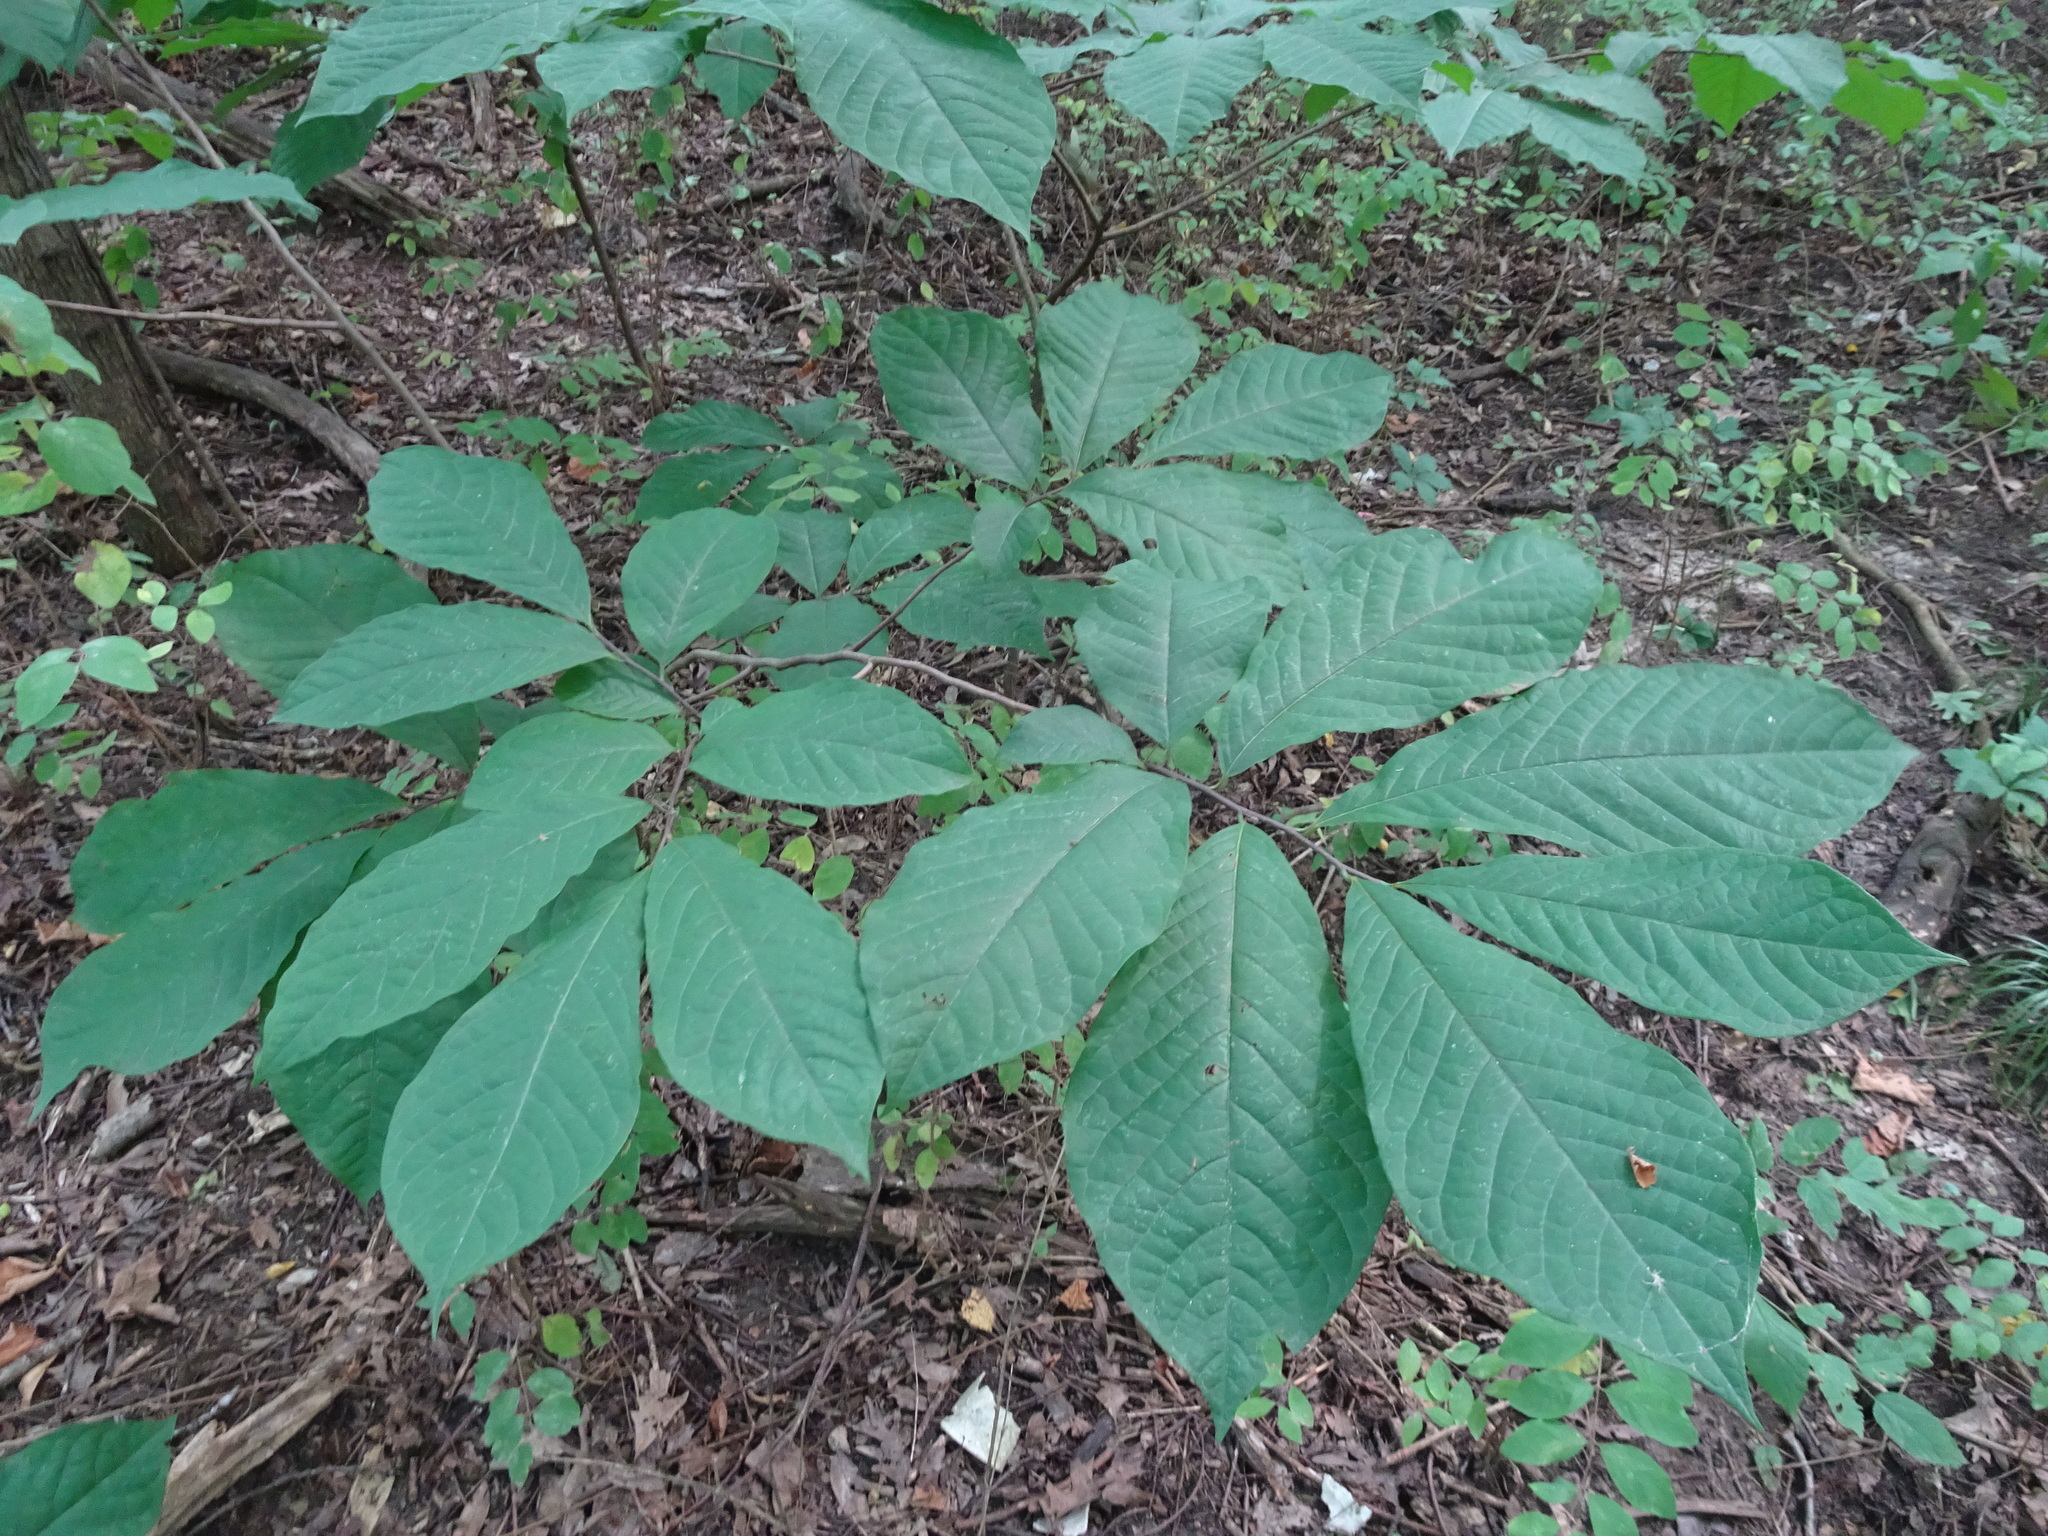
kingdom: Plantae
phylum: Tracheophyta
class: Magnoliopsida
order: Magnoliales
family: Annonaceae
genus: Asimina
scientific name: Asimina triloba
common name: Dog-banana
